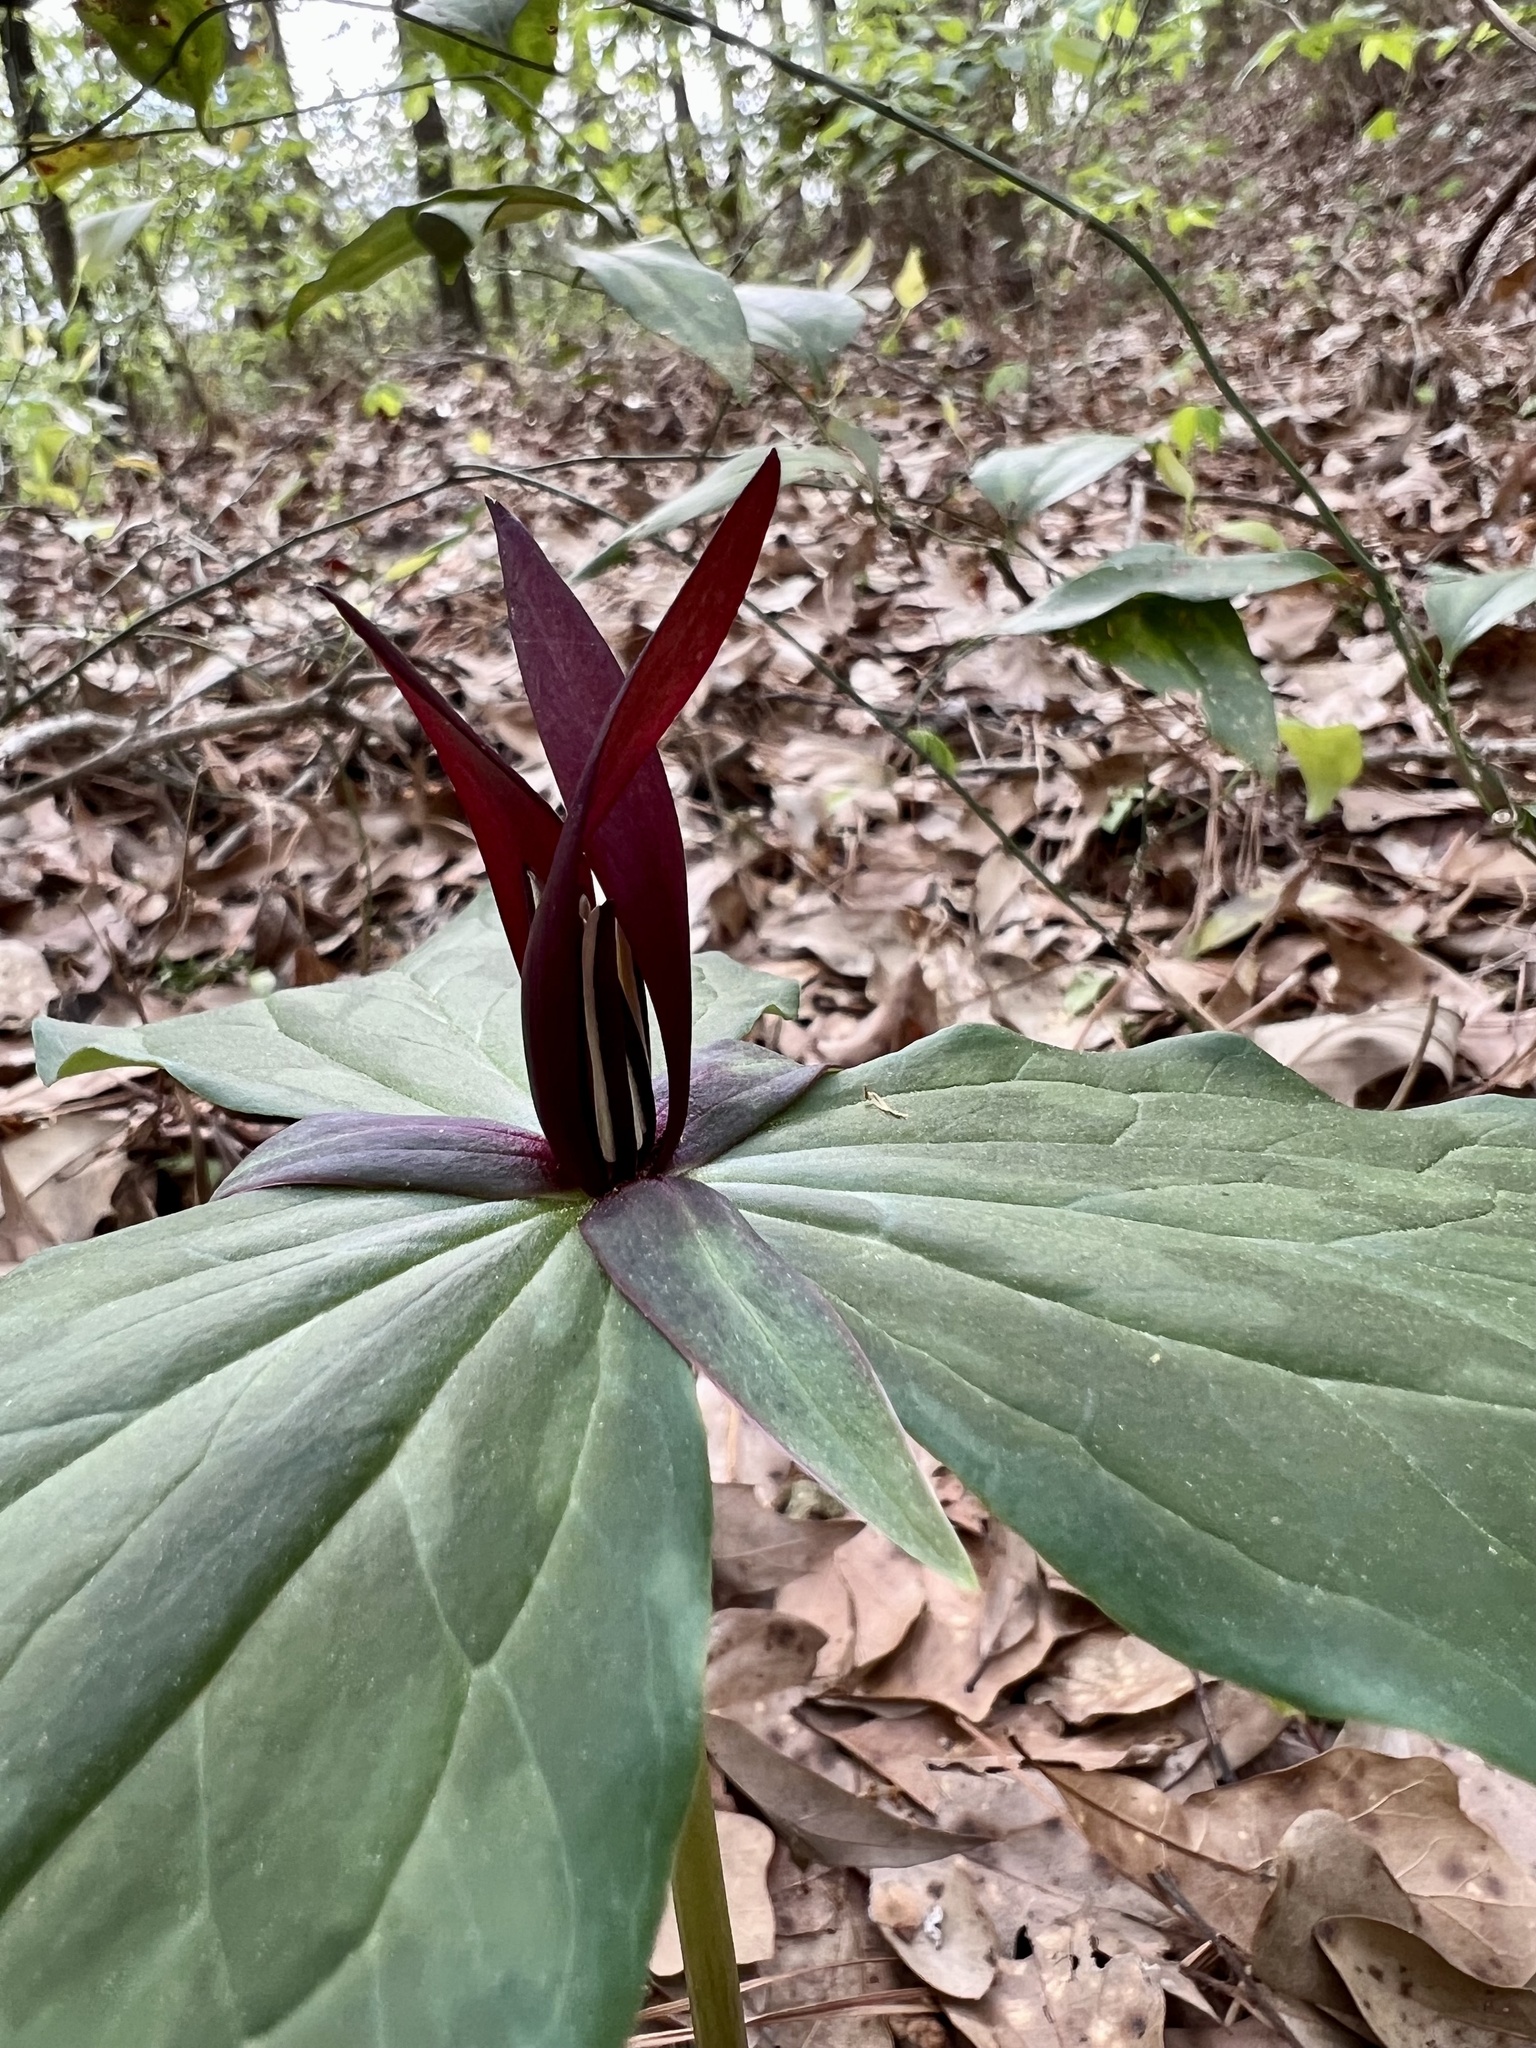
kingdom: Plantae
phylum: Tracheophyta
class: Liliopsida
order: Liliales
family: Melanthiaceae
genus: Trillium
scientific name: Trillium gracile
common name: Graceful trillium
